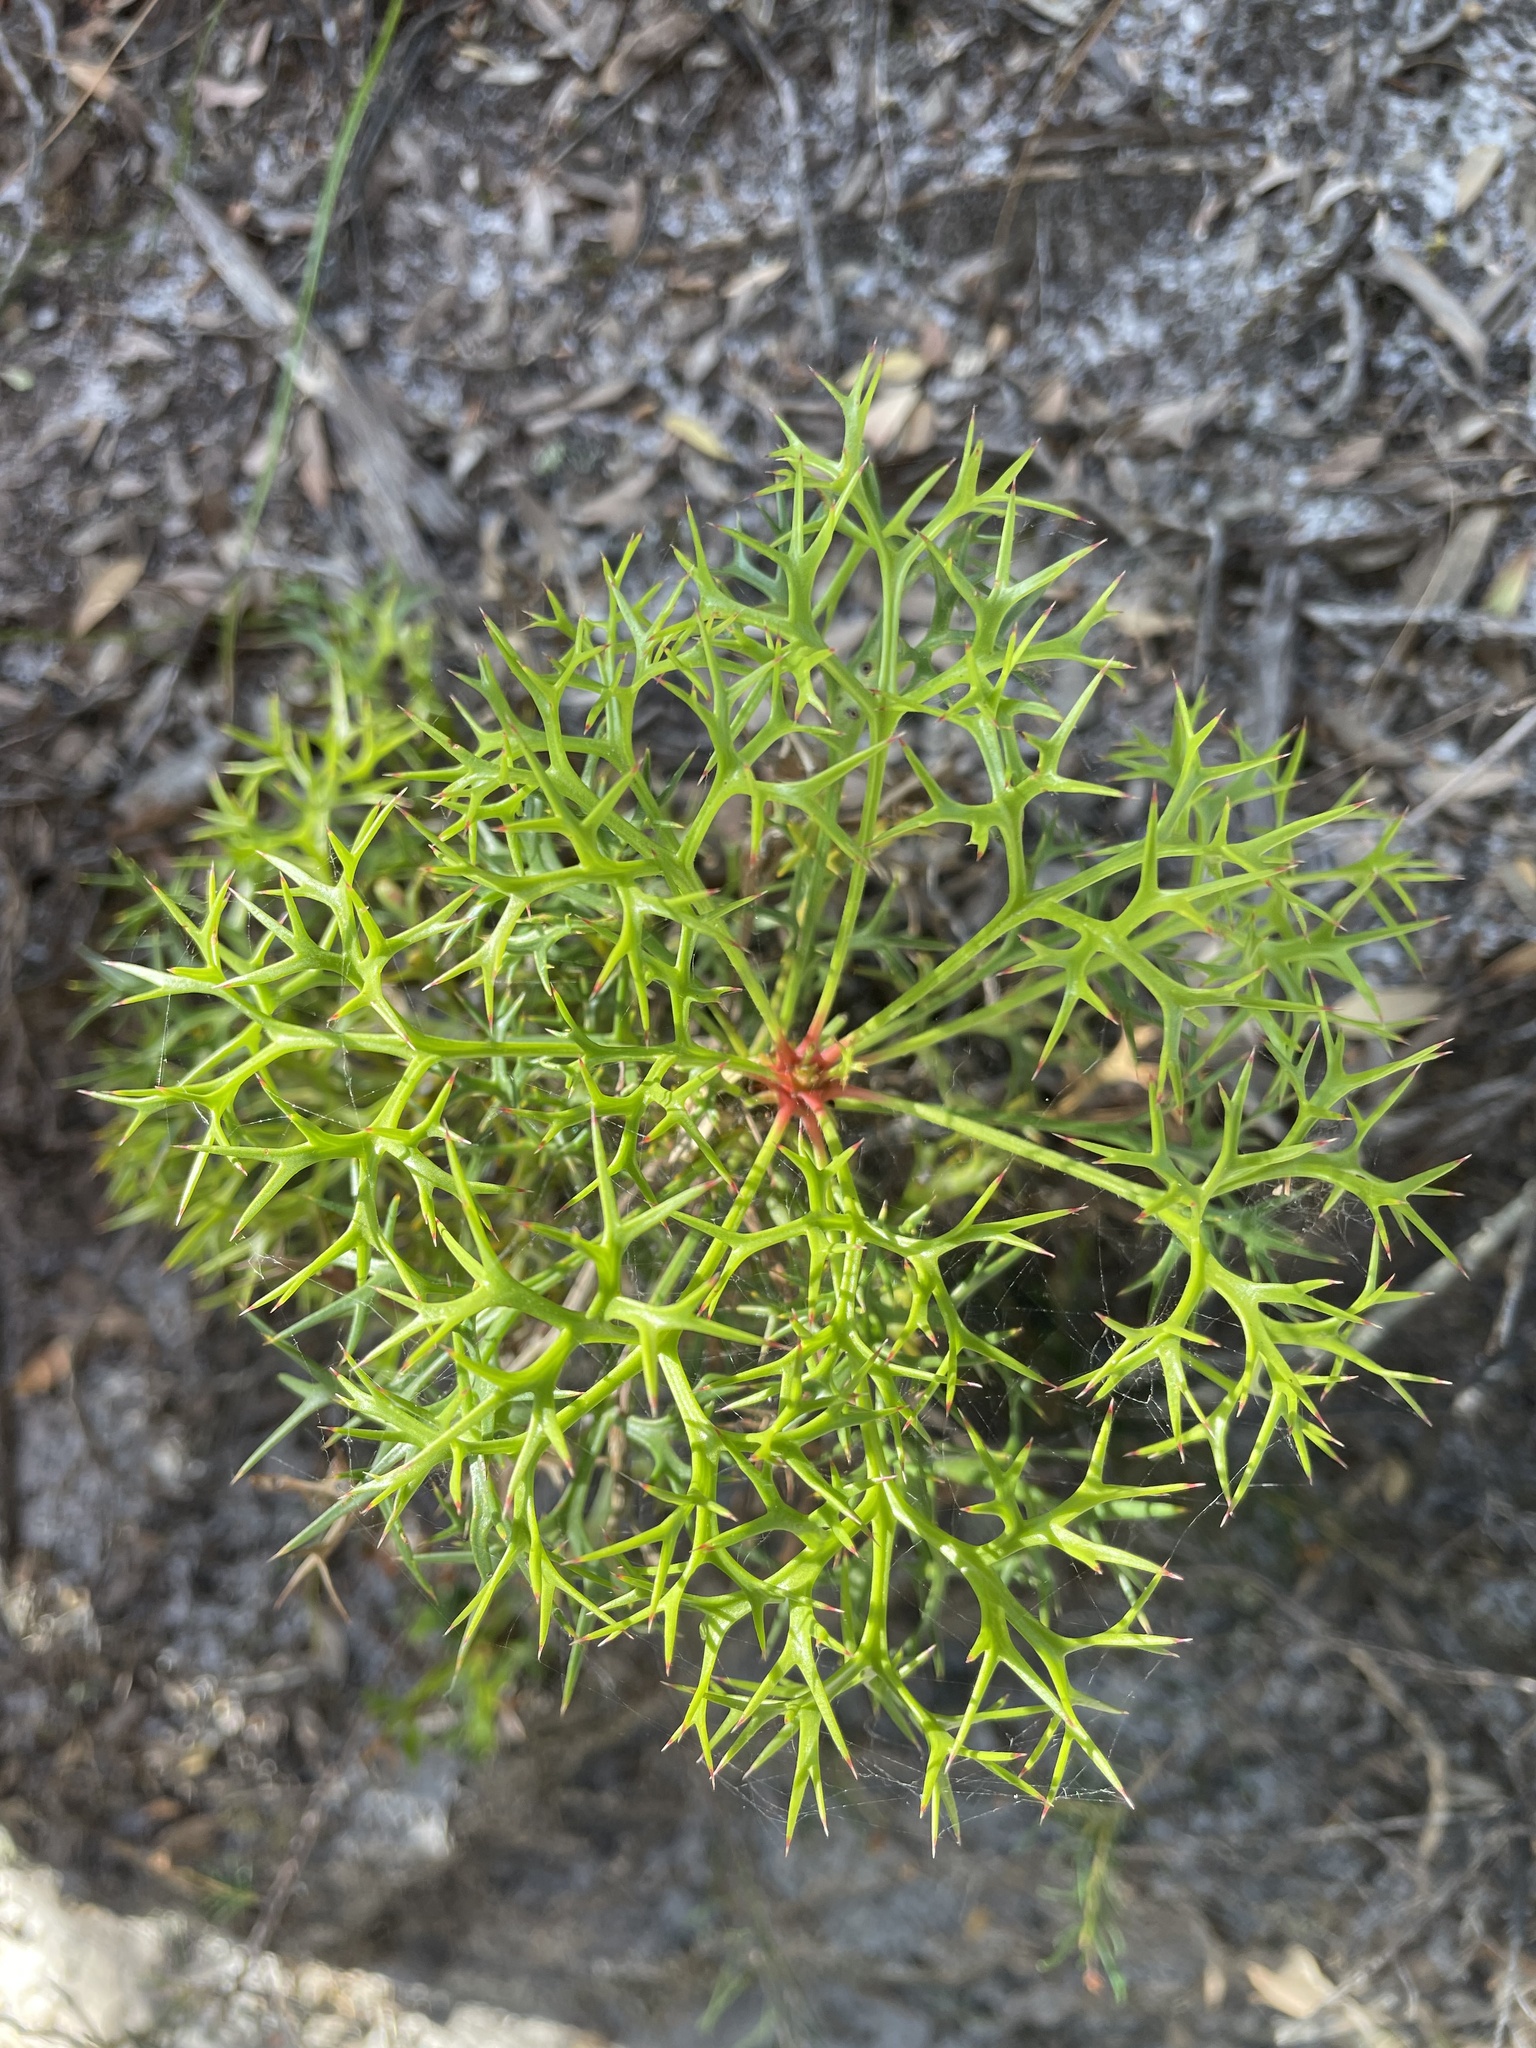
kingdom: Plantae
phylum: Tracheophyta
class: Magnoliopsida
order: Proteales
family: Proteaceae
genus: Isopogon
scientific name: Isopogon ceratophyllus
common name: Horny cone-bush
